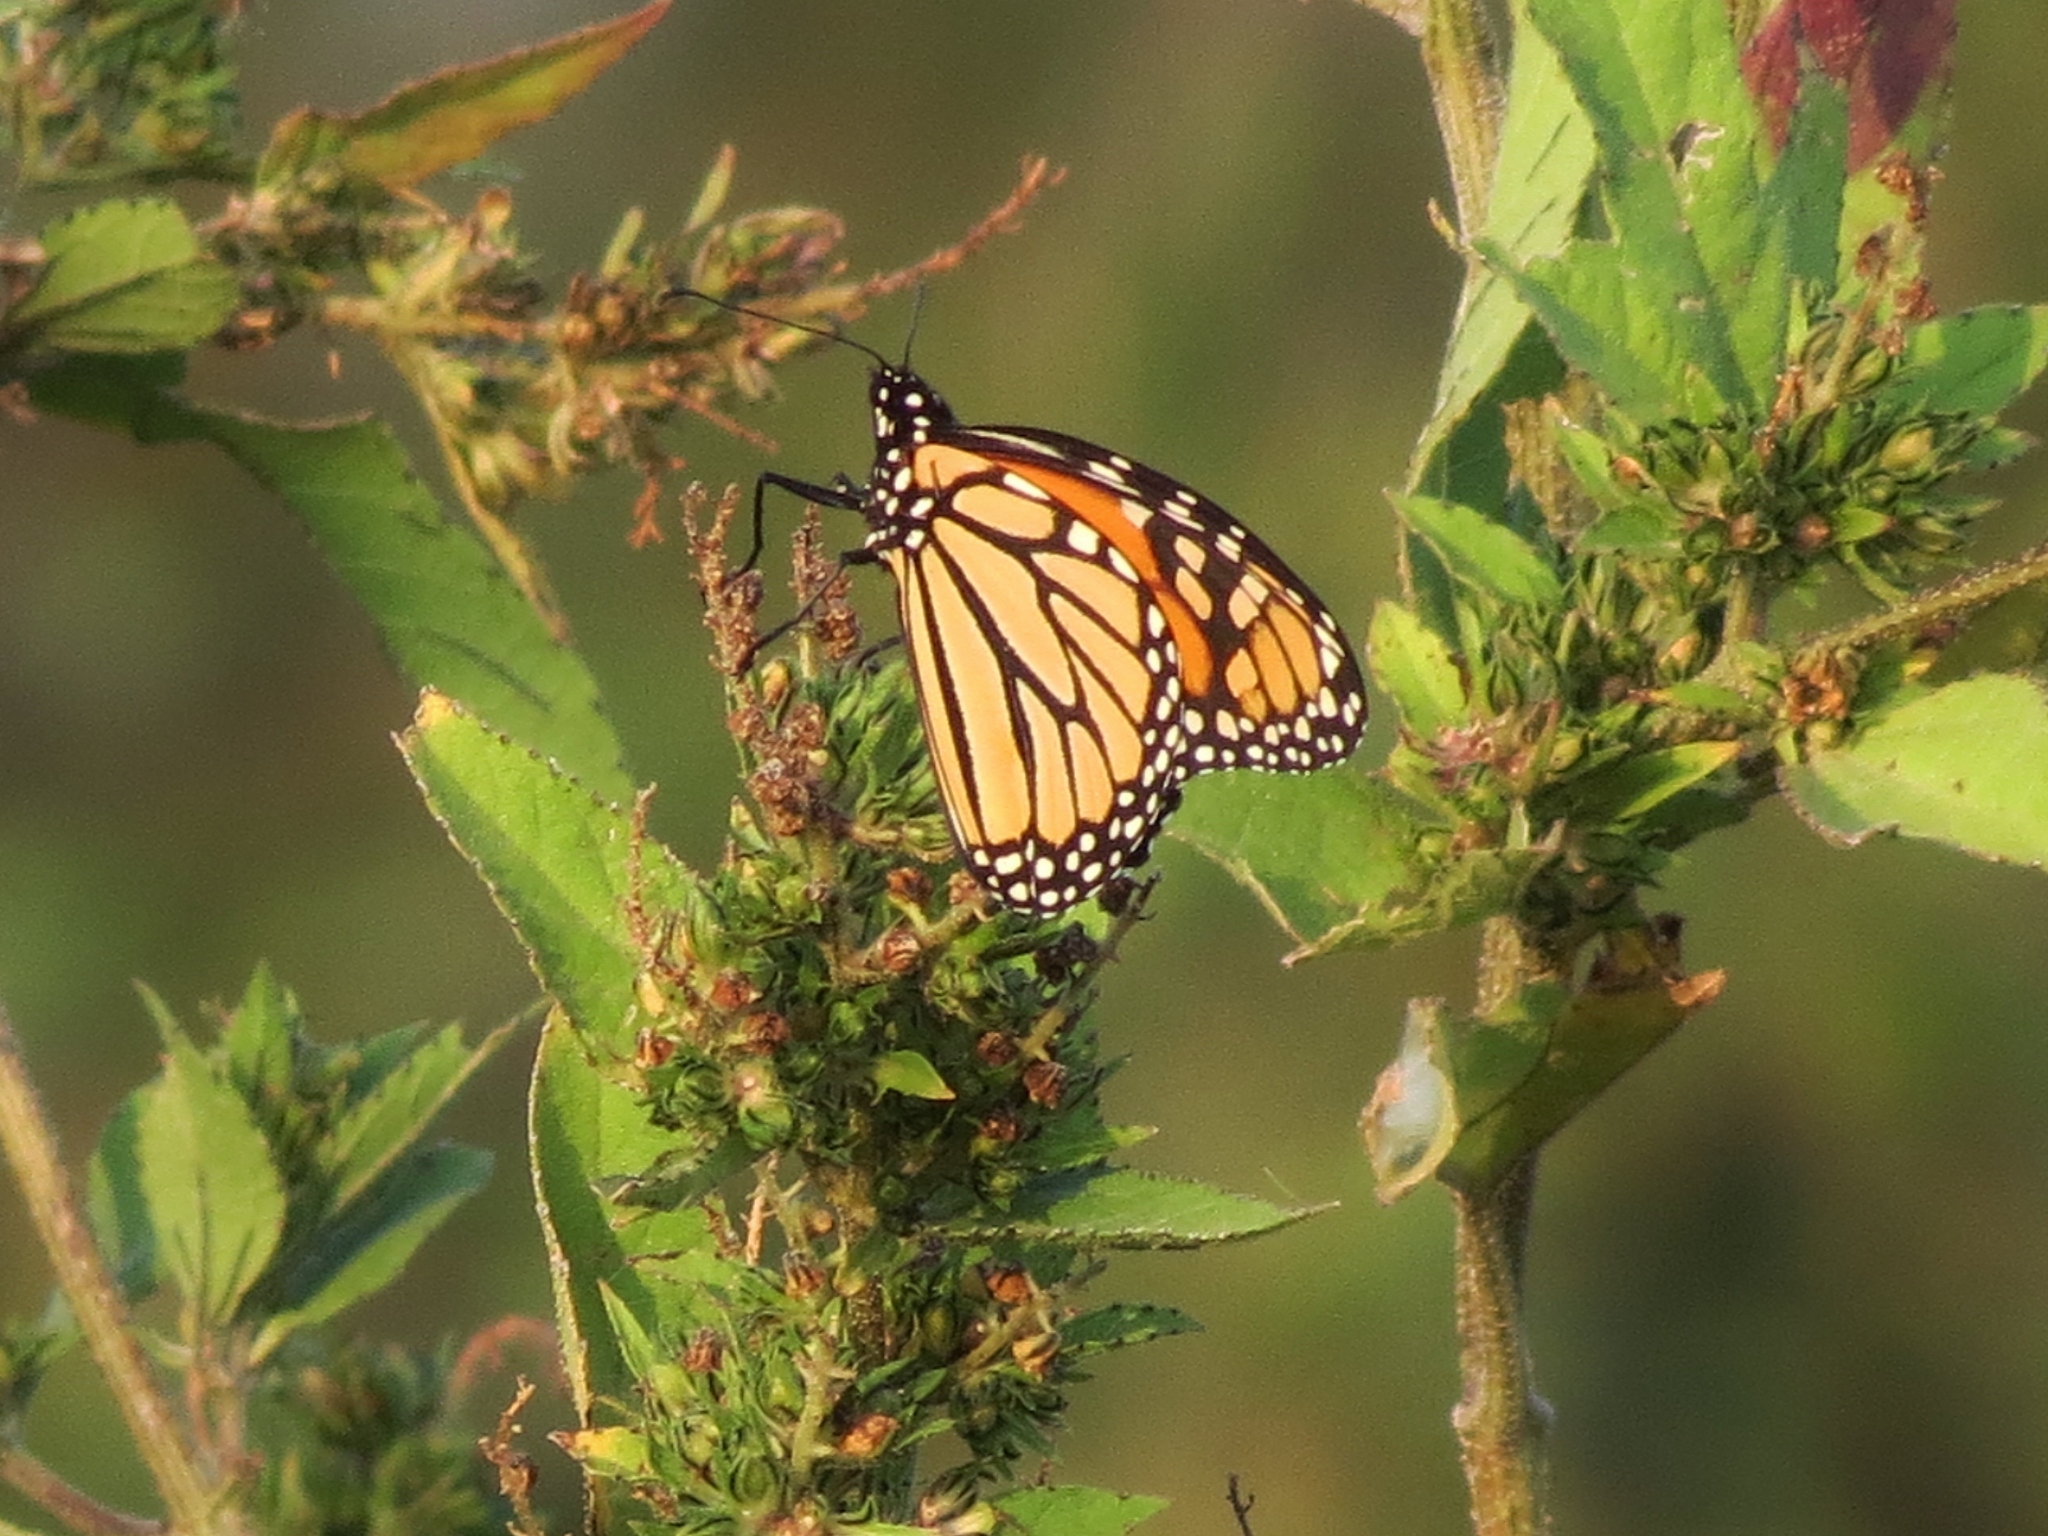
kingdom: Animalia
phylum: Arthropoda
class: Insecta
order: Lepidoptera
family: Nymphalidae
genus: Danaus
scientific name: Danaus plexippus
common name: Monarch
